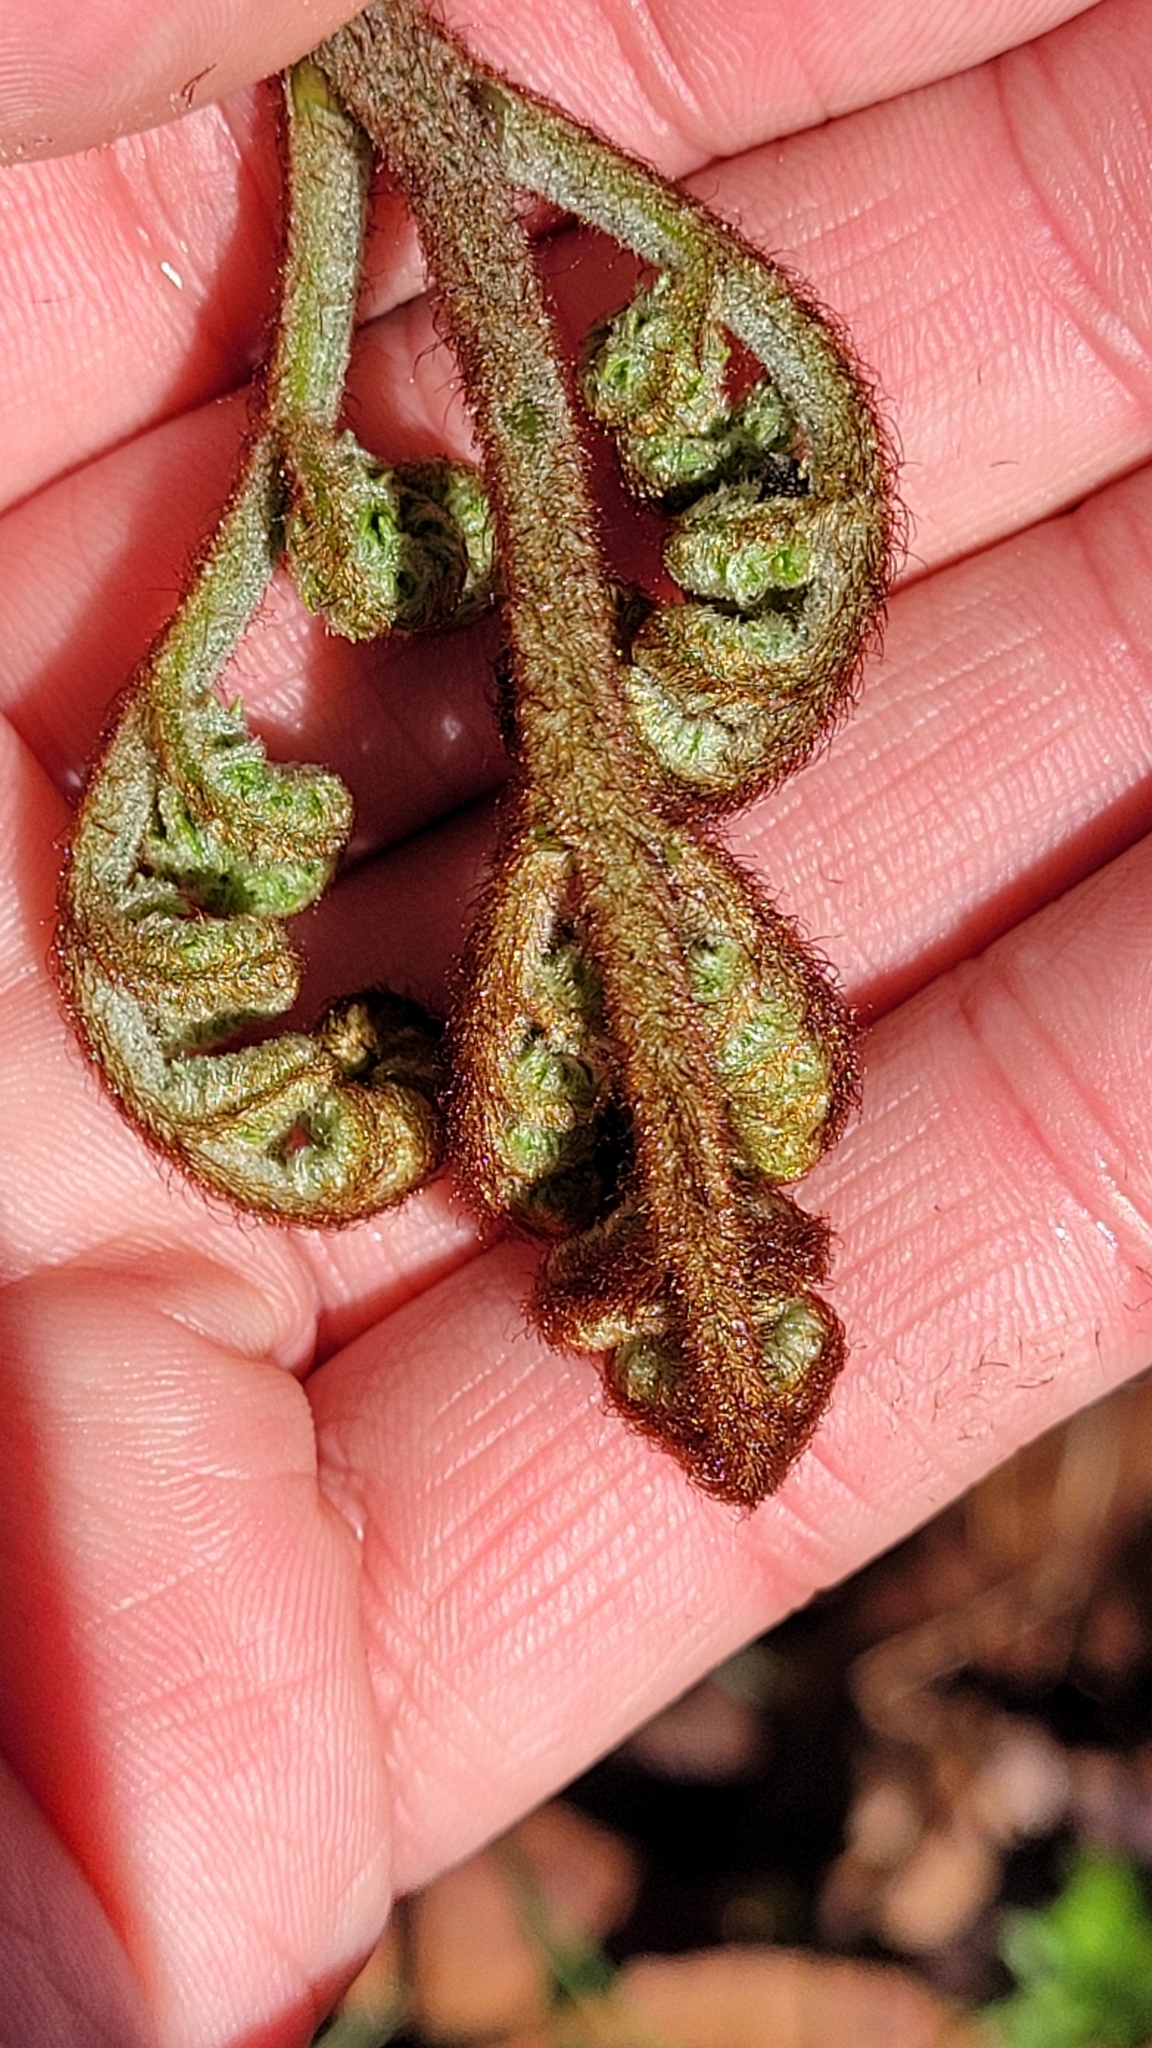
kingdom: Plantae
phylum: Tracheophyta
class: Polypodiopsida
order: Polypodiales
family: Dennstaedtiaceae
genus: Pteridium
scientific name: Pteridium aquilinum
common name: Bracken
